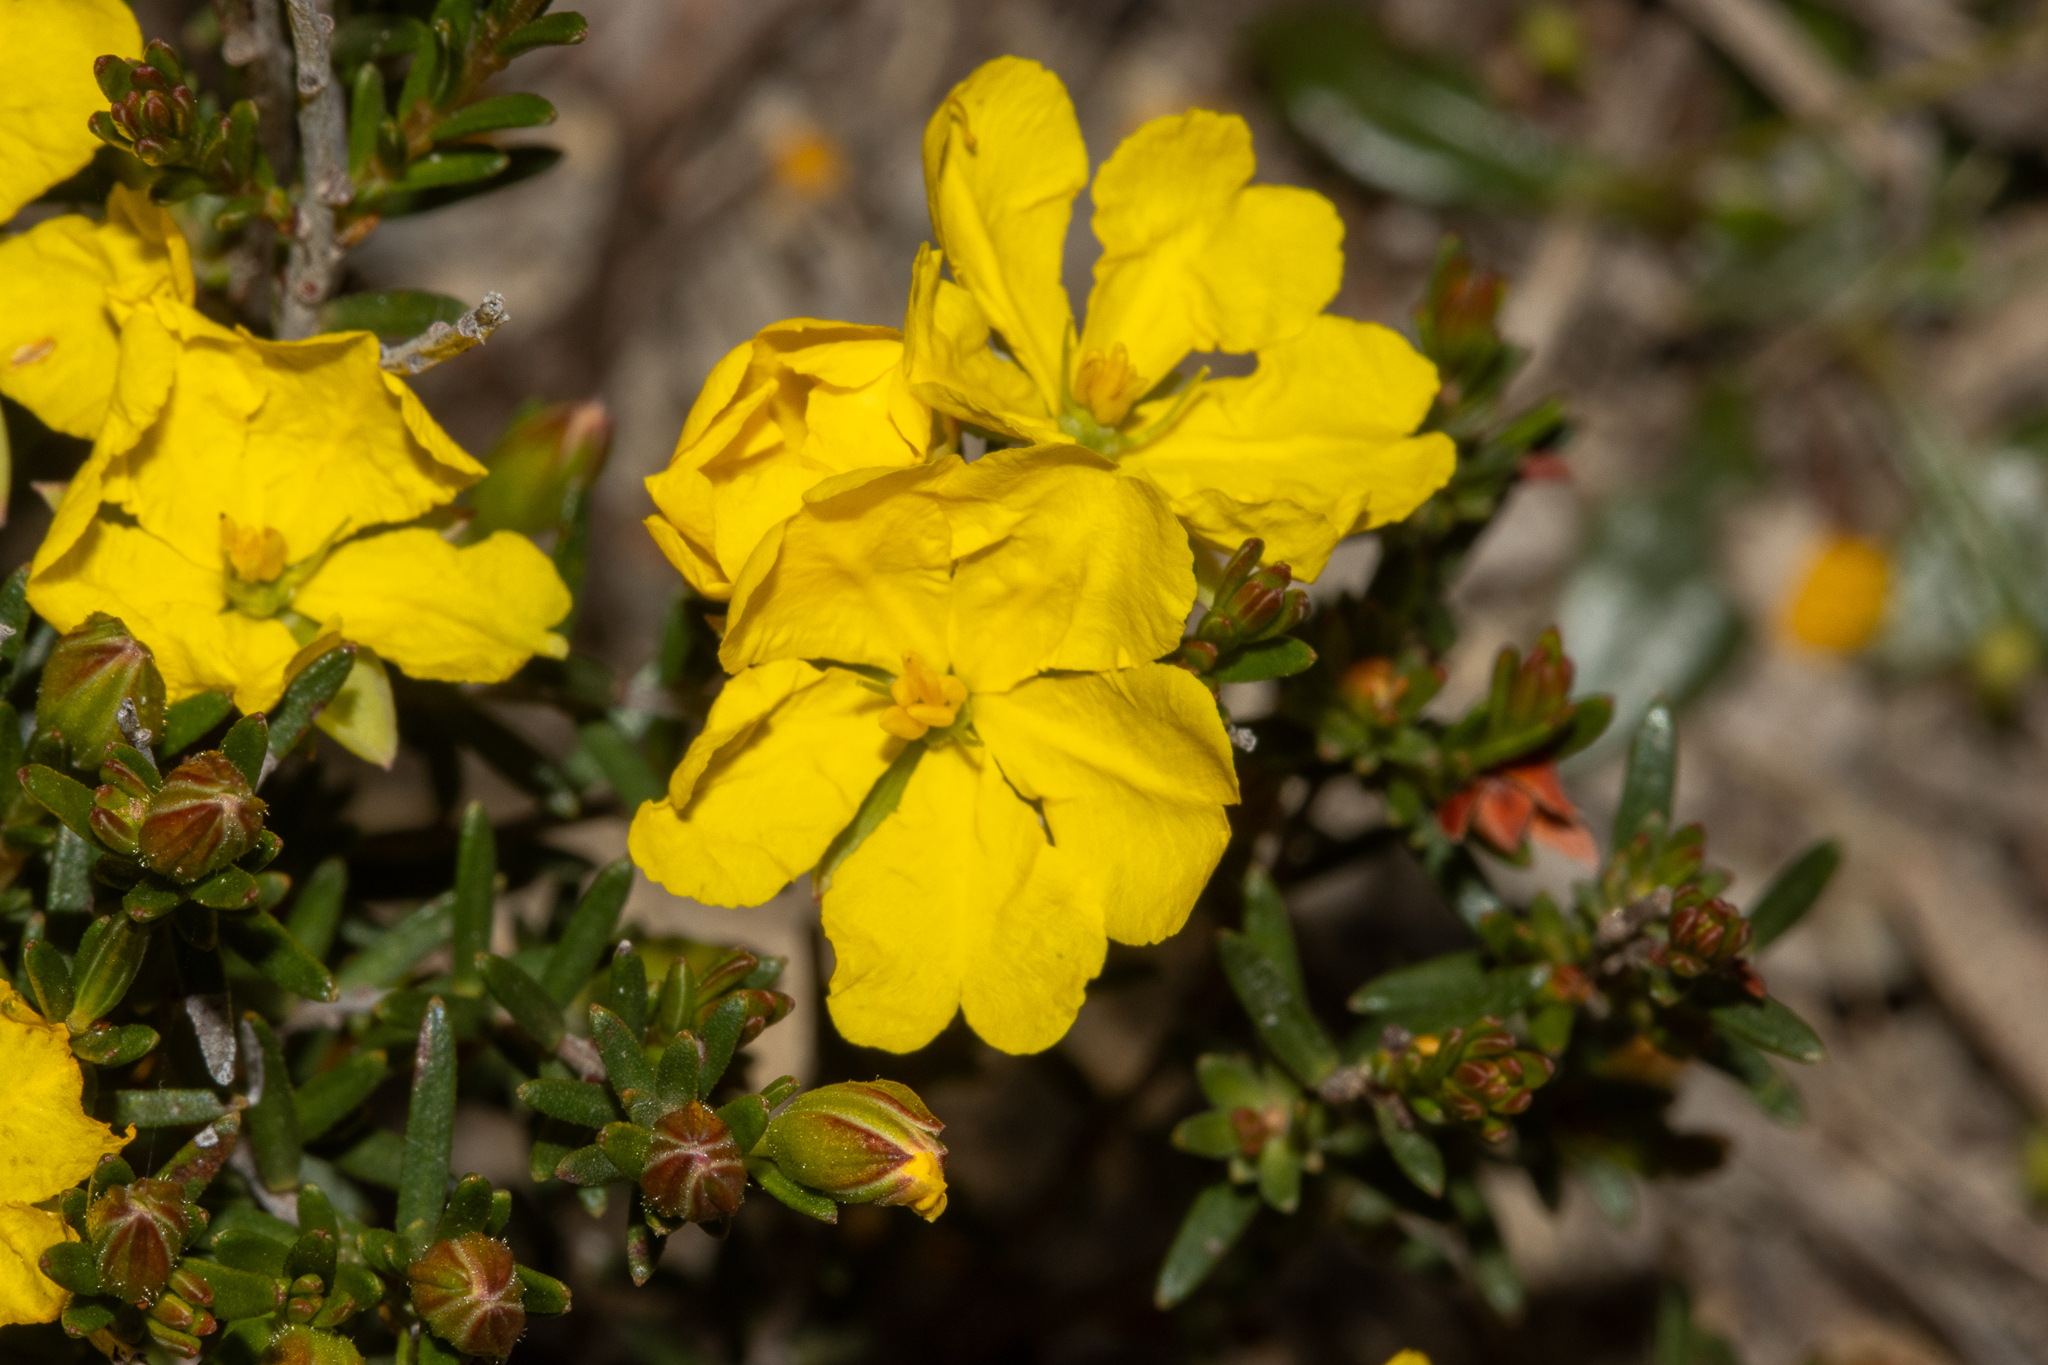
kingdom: Plantae
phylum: Tracheophyta
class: Magnoliopsida
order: Dilleniales
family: Dilleniaceae
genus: Hibbertia
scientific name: Hibbertia devitata
